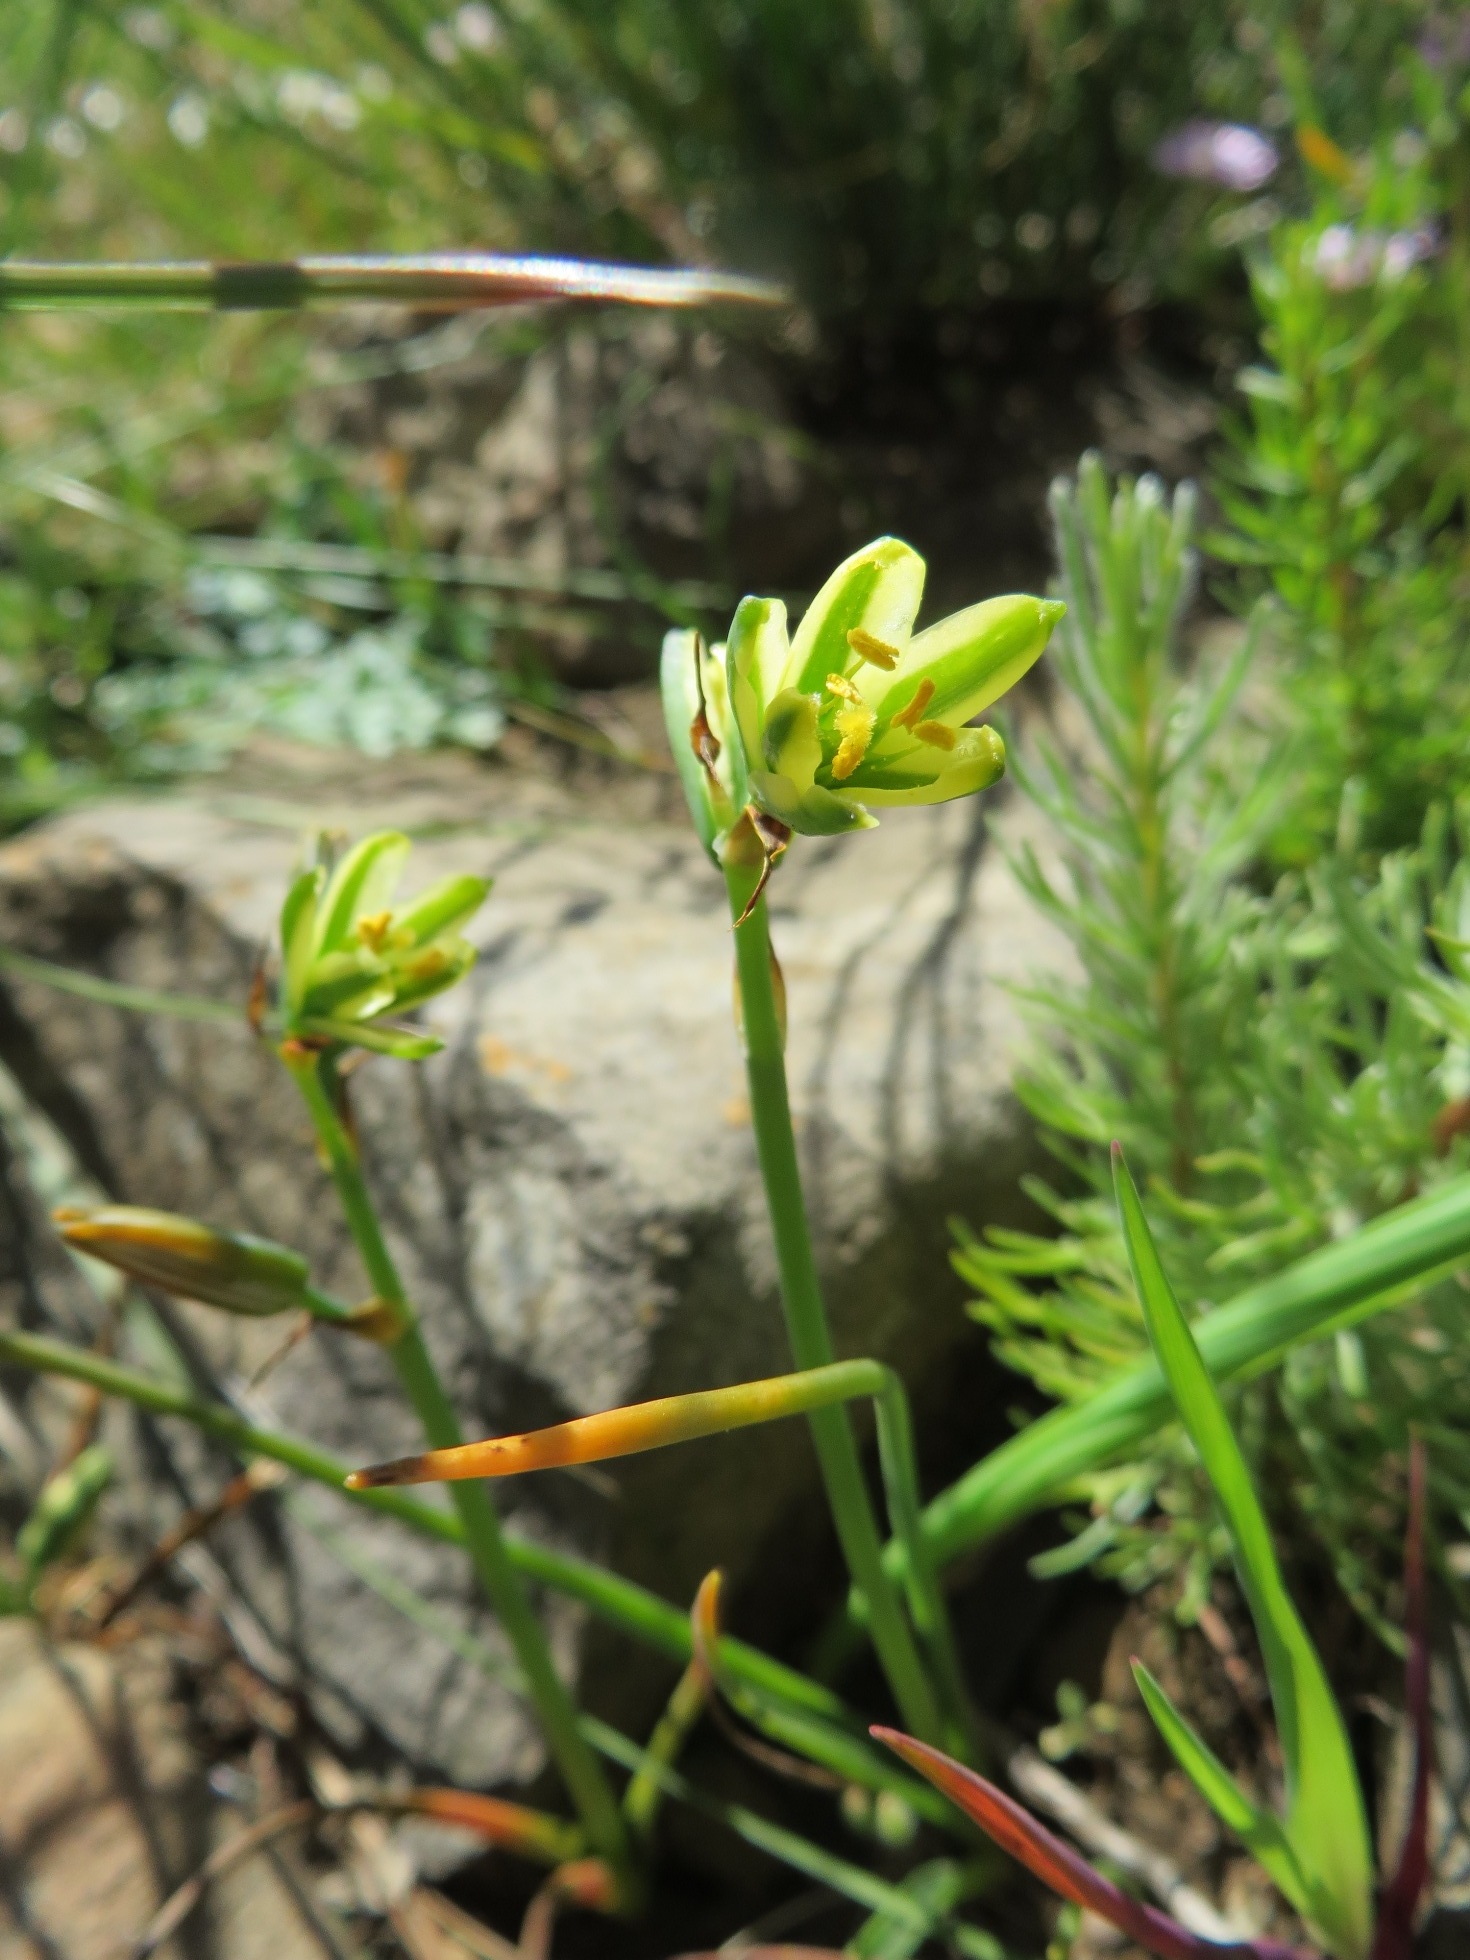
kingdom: Plantae
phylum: Tracheophyta
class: Liliopsida
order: Asparagales
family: Asparagaceae
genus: Albuca
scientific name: Albuca suaveolens
